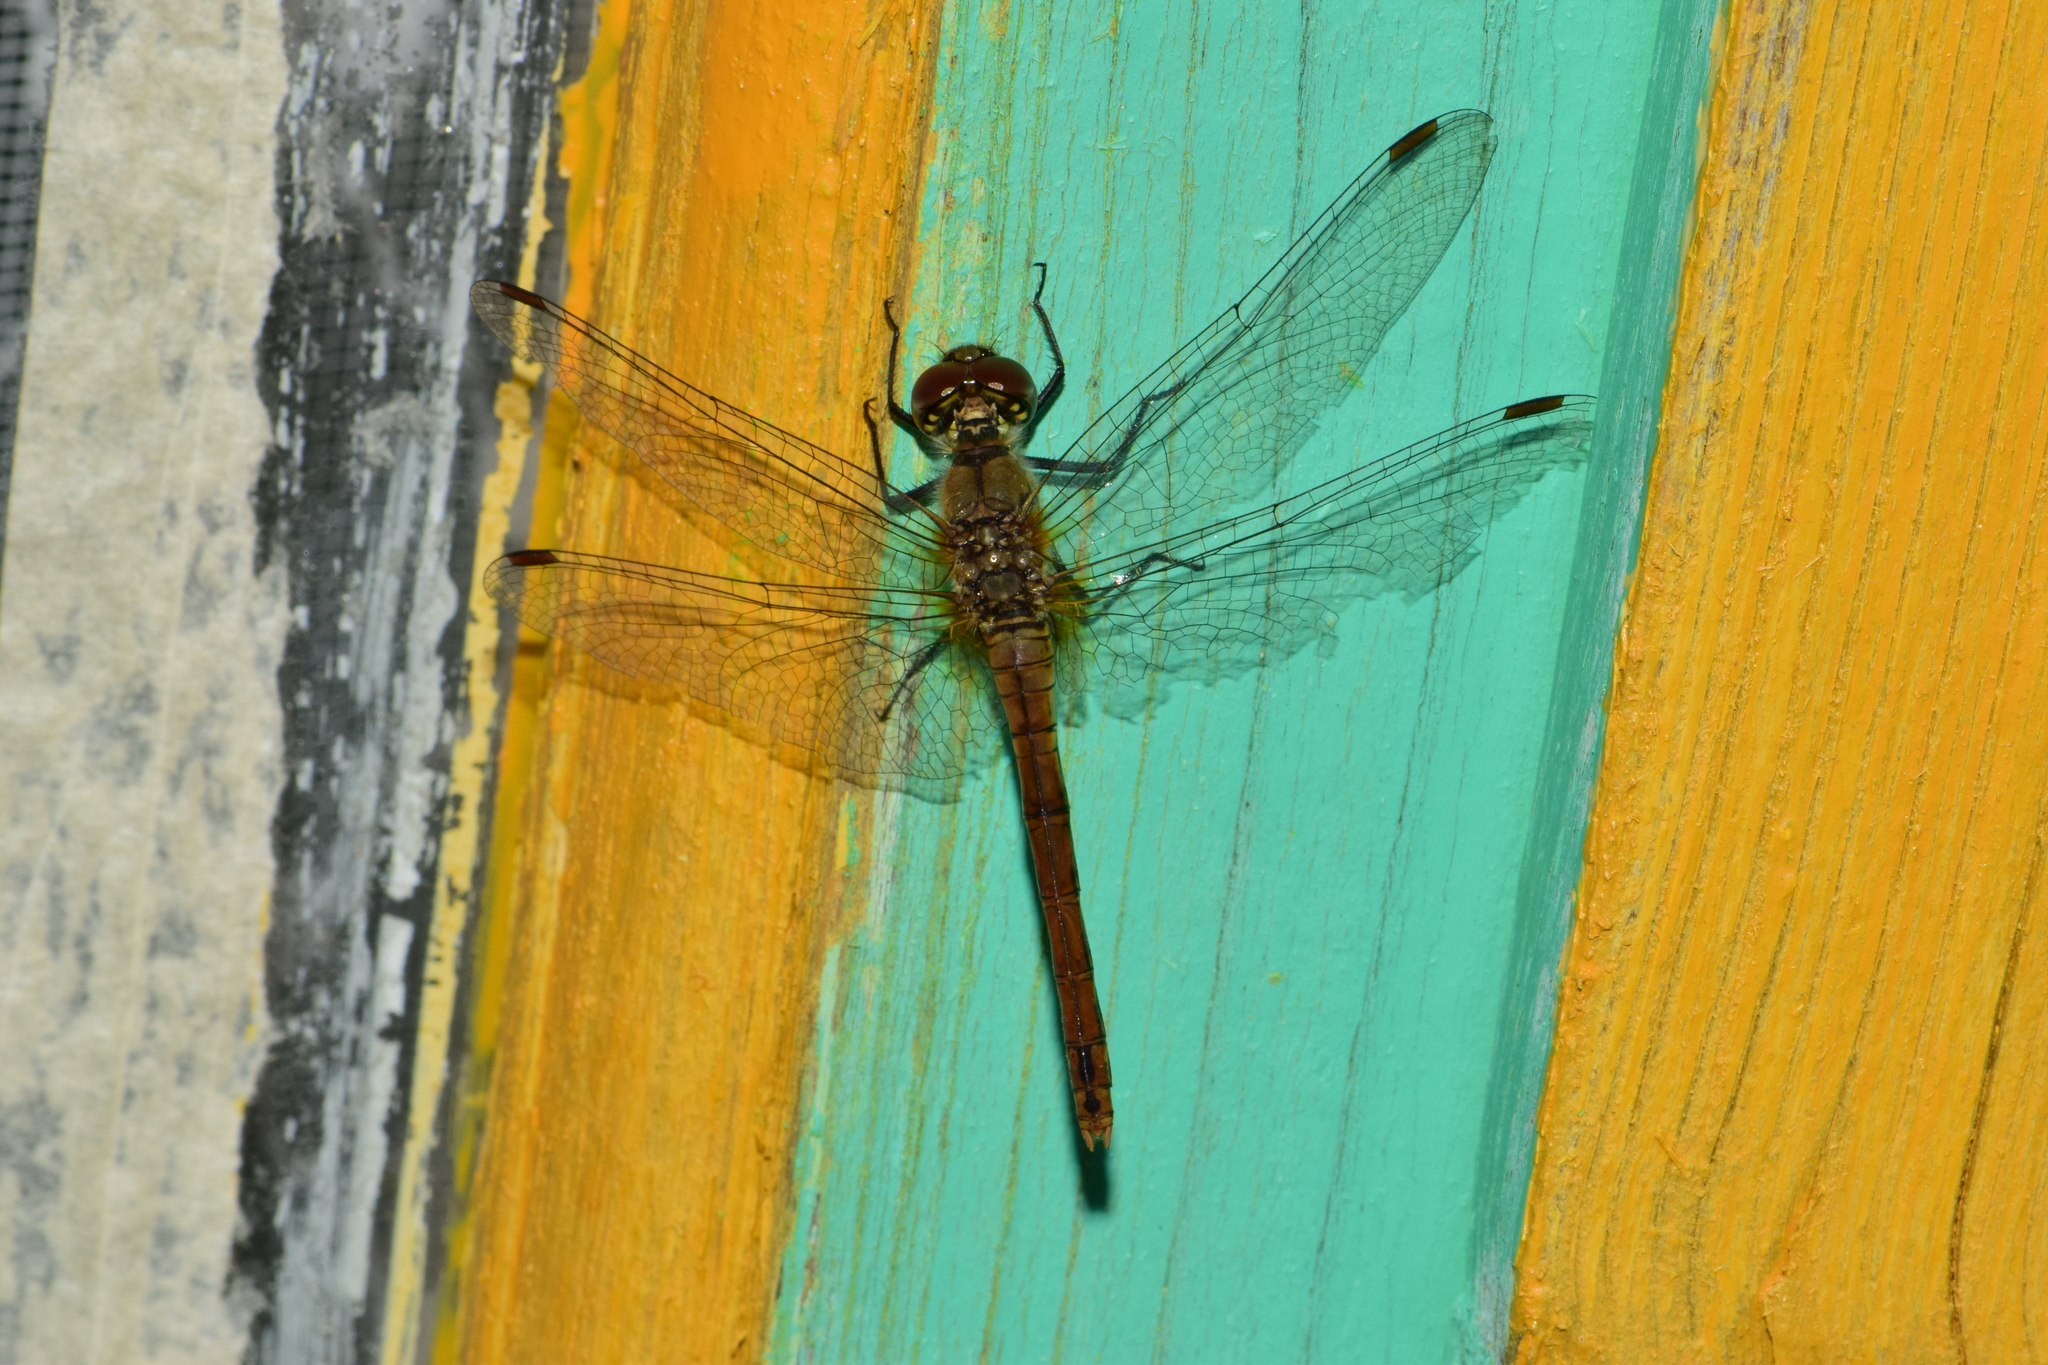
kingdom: Animalia
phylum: Arthropoda
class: Insecta
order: Odonata
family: Libellulidae
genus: Sympetrum
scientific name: Sympetrum sanguineum
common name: Ruddy darter
